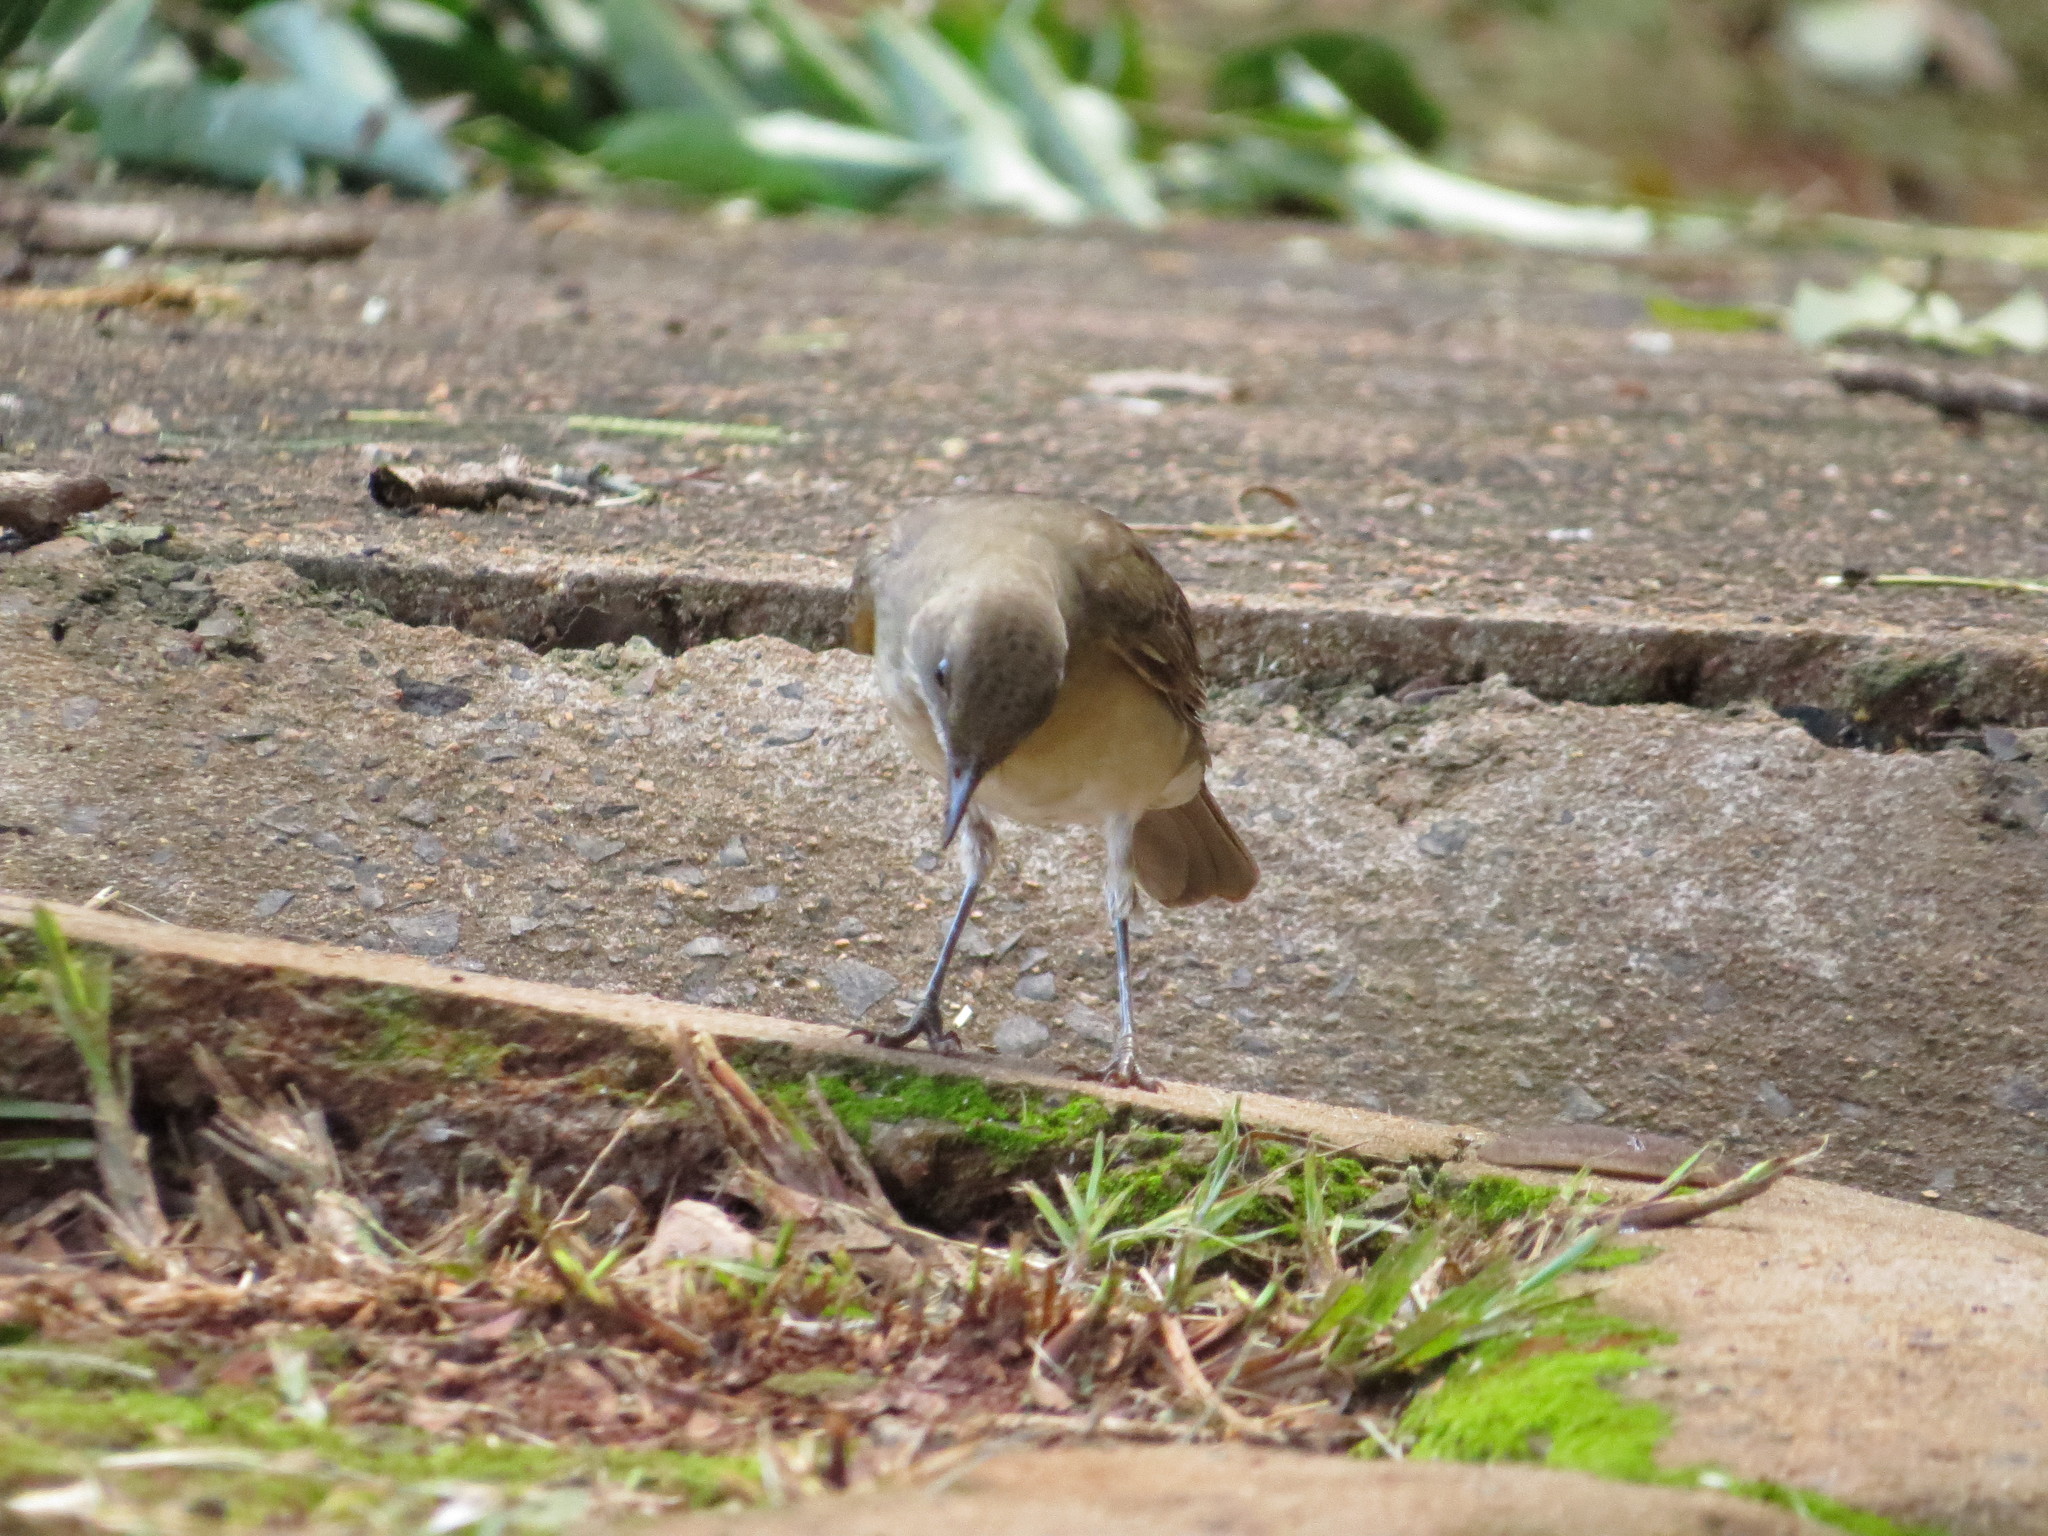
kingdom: Animalia
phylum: Chordata
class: Aves
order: Passeriformes
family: Turdidae
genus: Turdus
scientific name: Turdus amaurochalinus
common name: Creamy-bellied thrush
